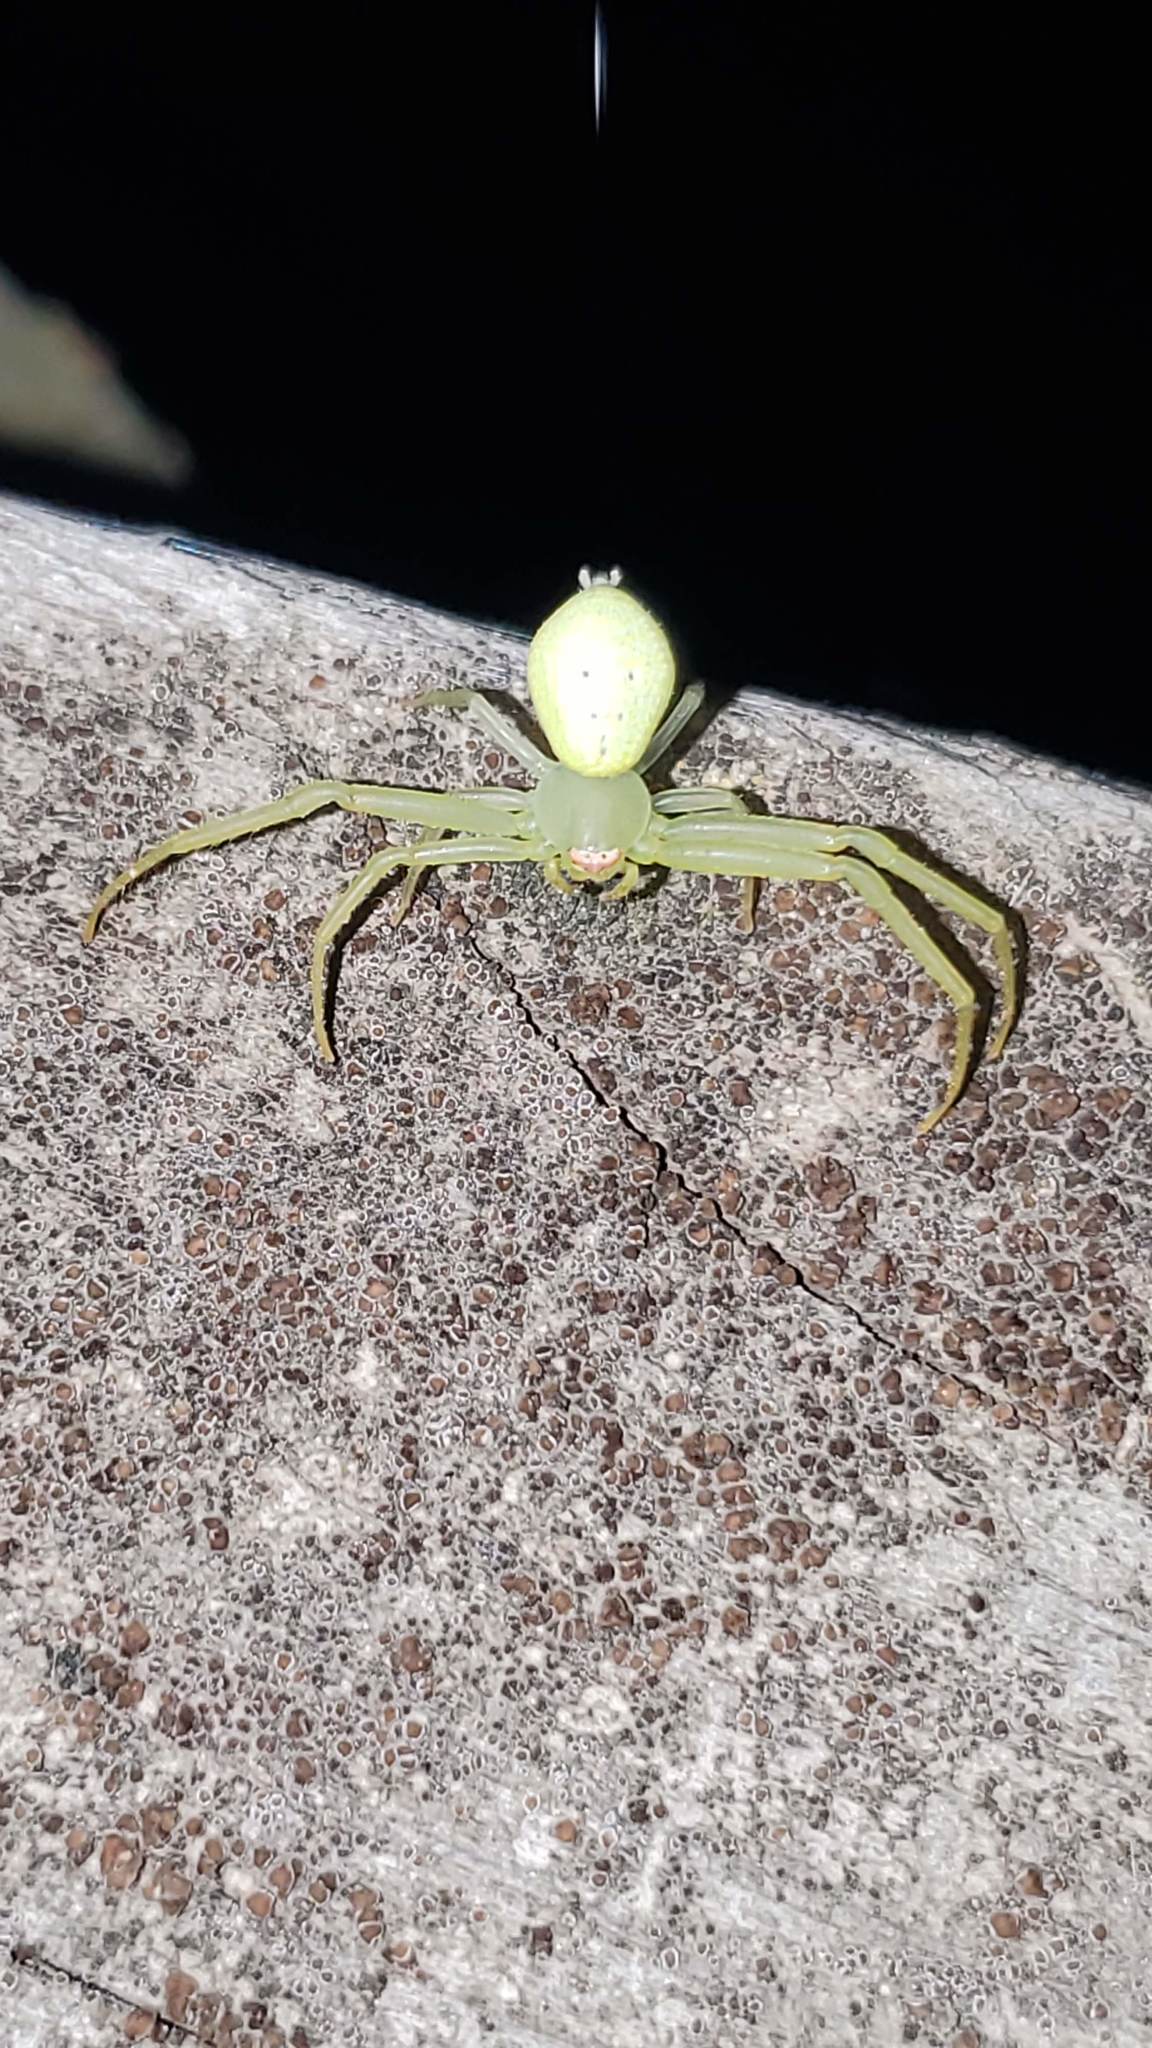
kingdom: Animalia
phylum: Arthropoda
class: Arachnida
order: Araneae
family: Thomisidae
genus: Misumessus
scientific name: Misumessus oblongus
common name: American green crab spider
